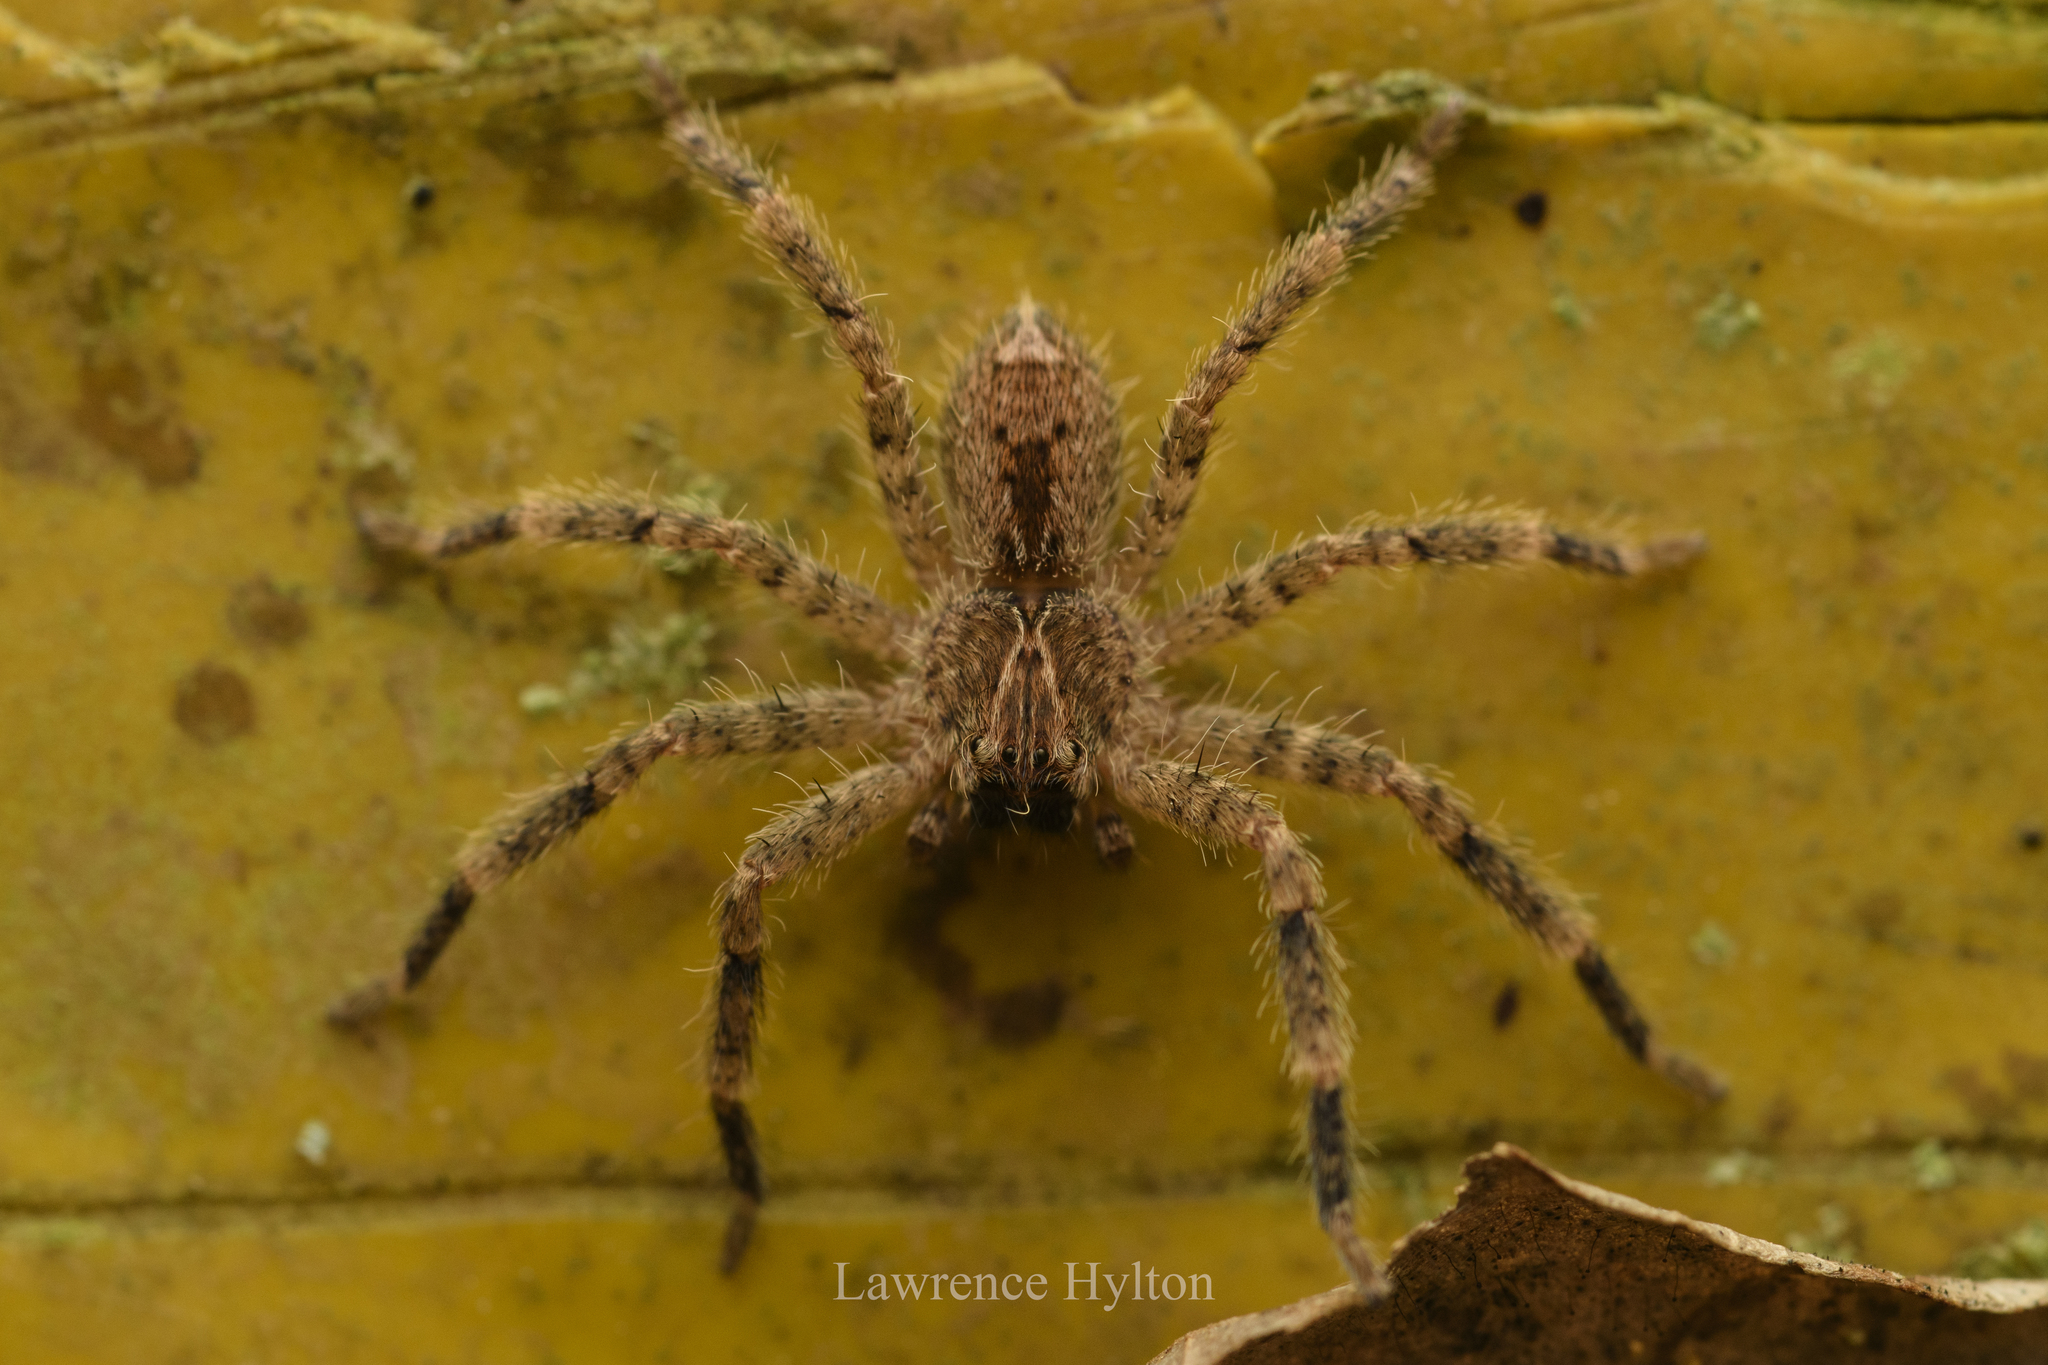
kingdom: Animalia
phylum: Arthropoda
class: Arachnida
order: Araneae
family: Sparassidae
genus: Heteropoda
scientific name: Heteropoda pingtungensis
